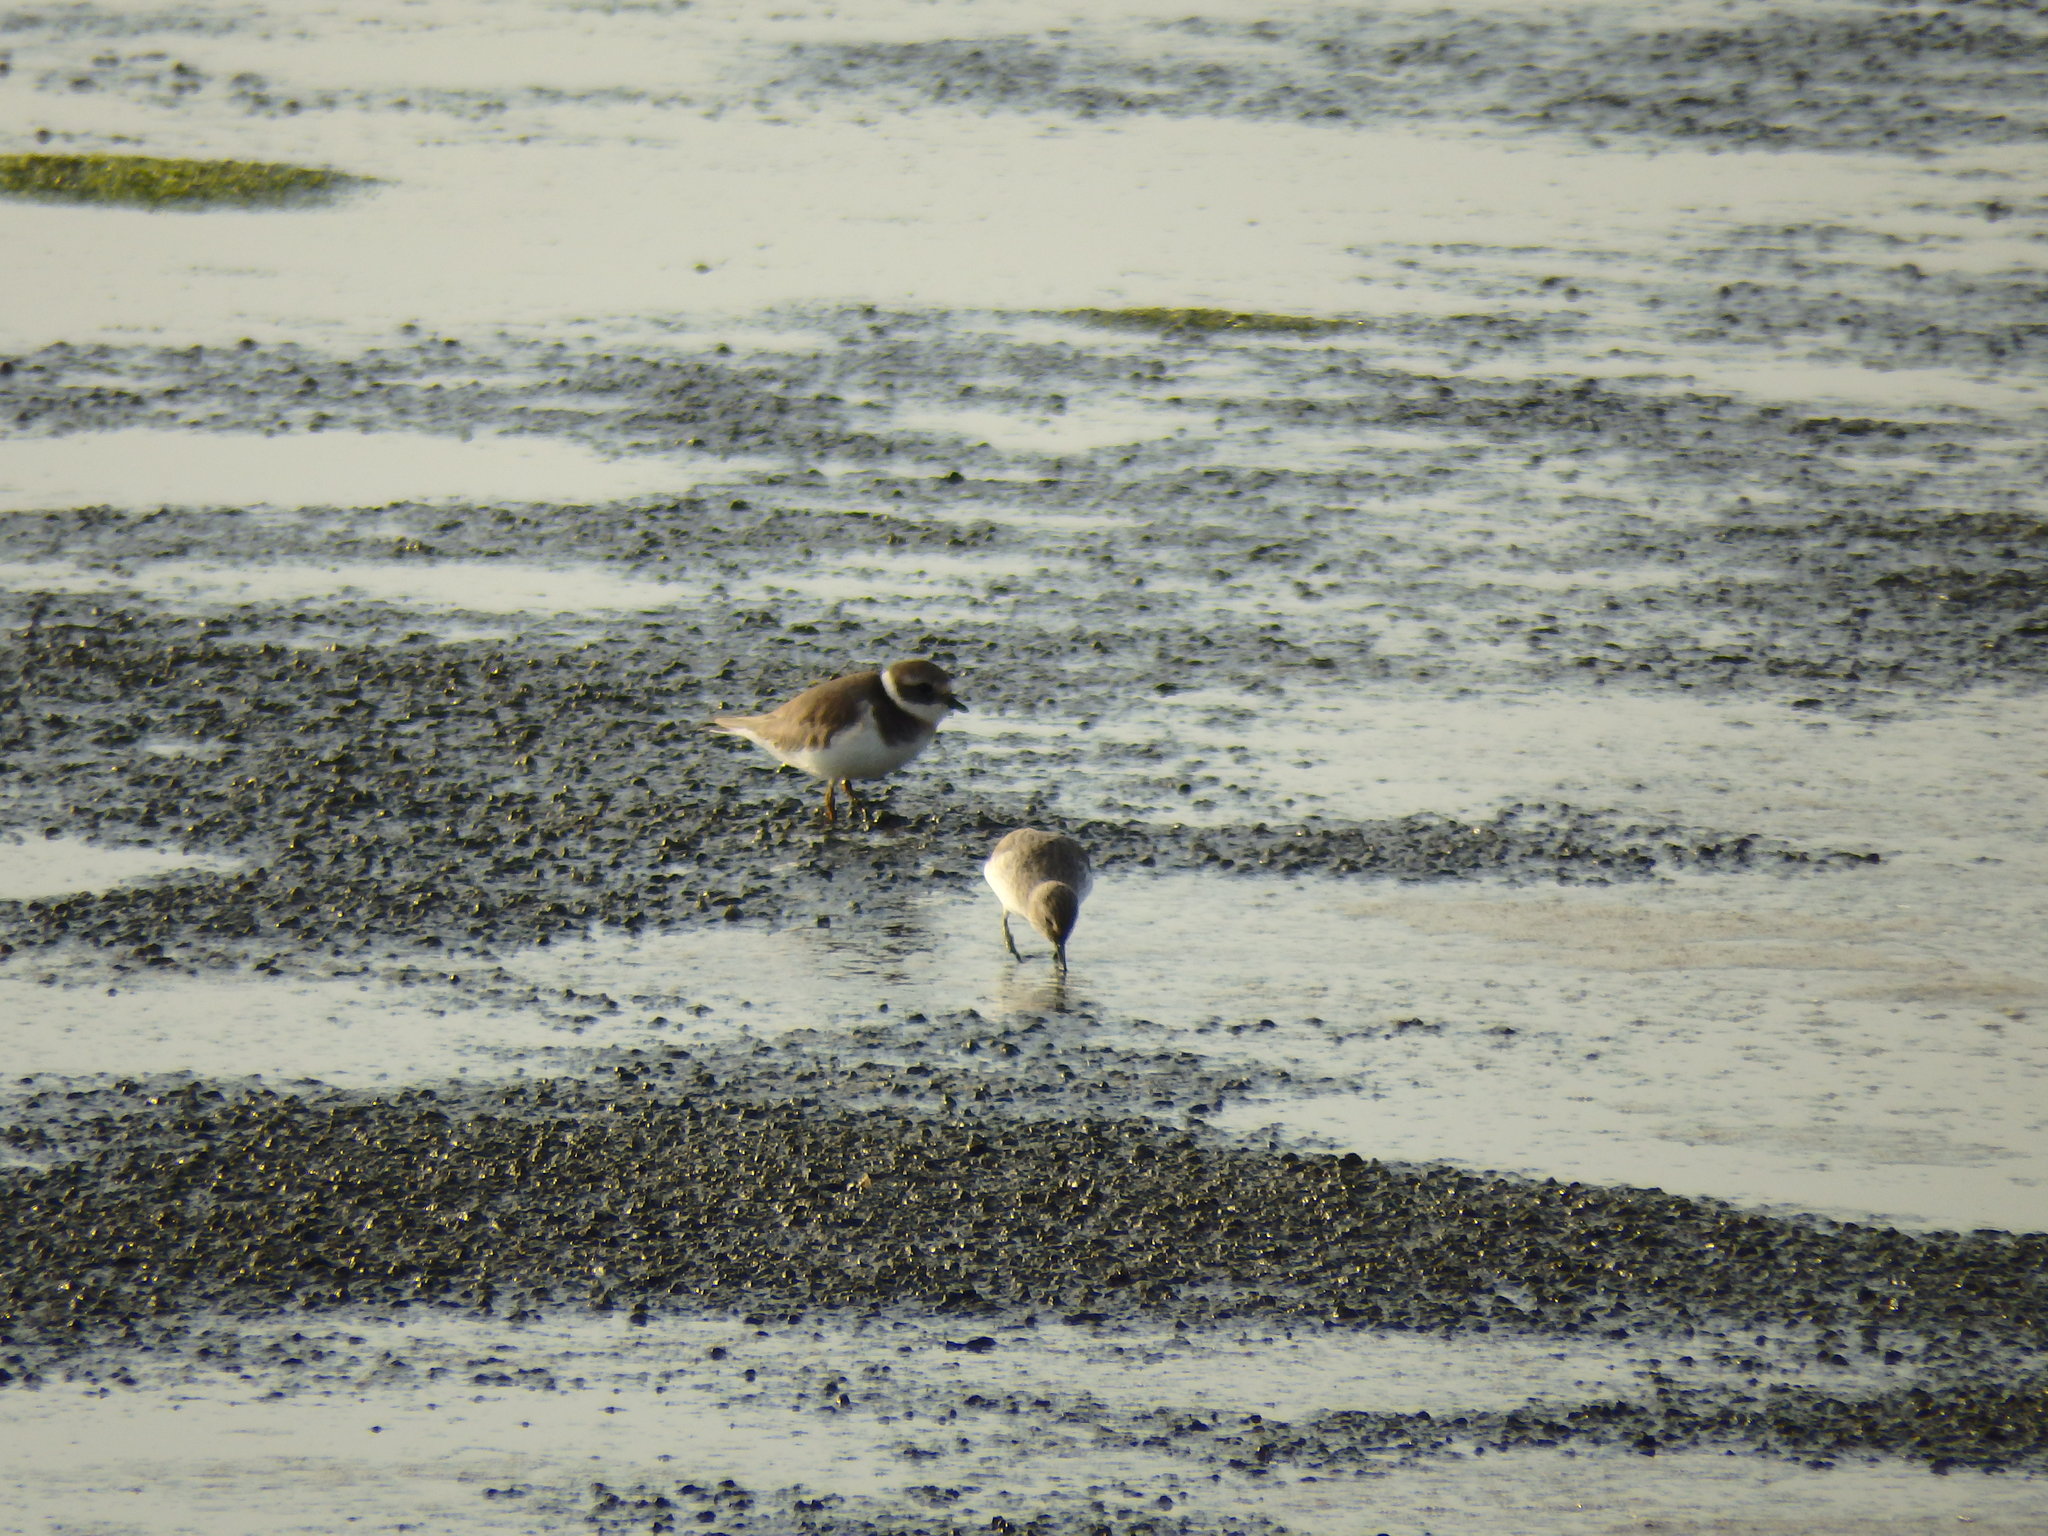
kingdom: Animalia
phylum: Chordata
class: Aves
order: Charadriiformes
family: Charadriidae
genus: Charadrius
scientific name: Charadrius hiaticula
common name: Common ringed plover
